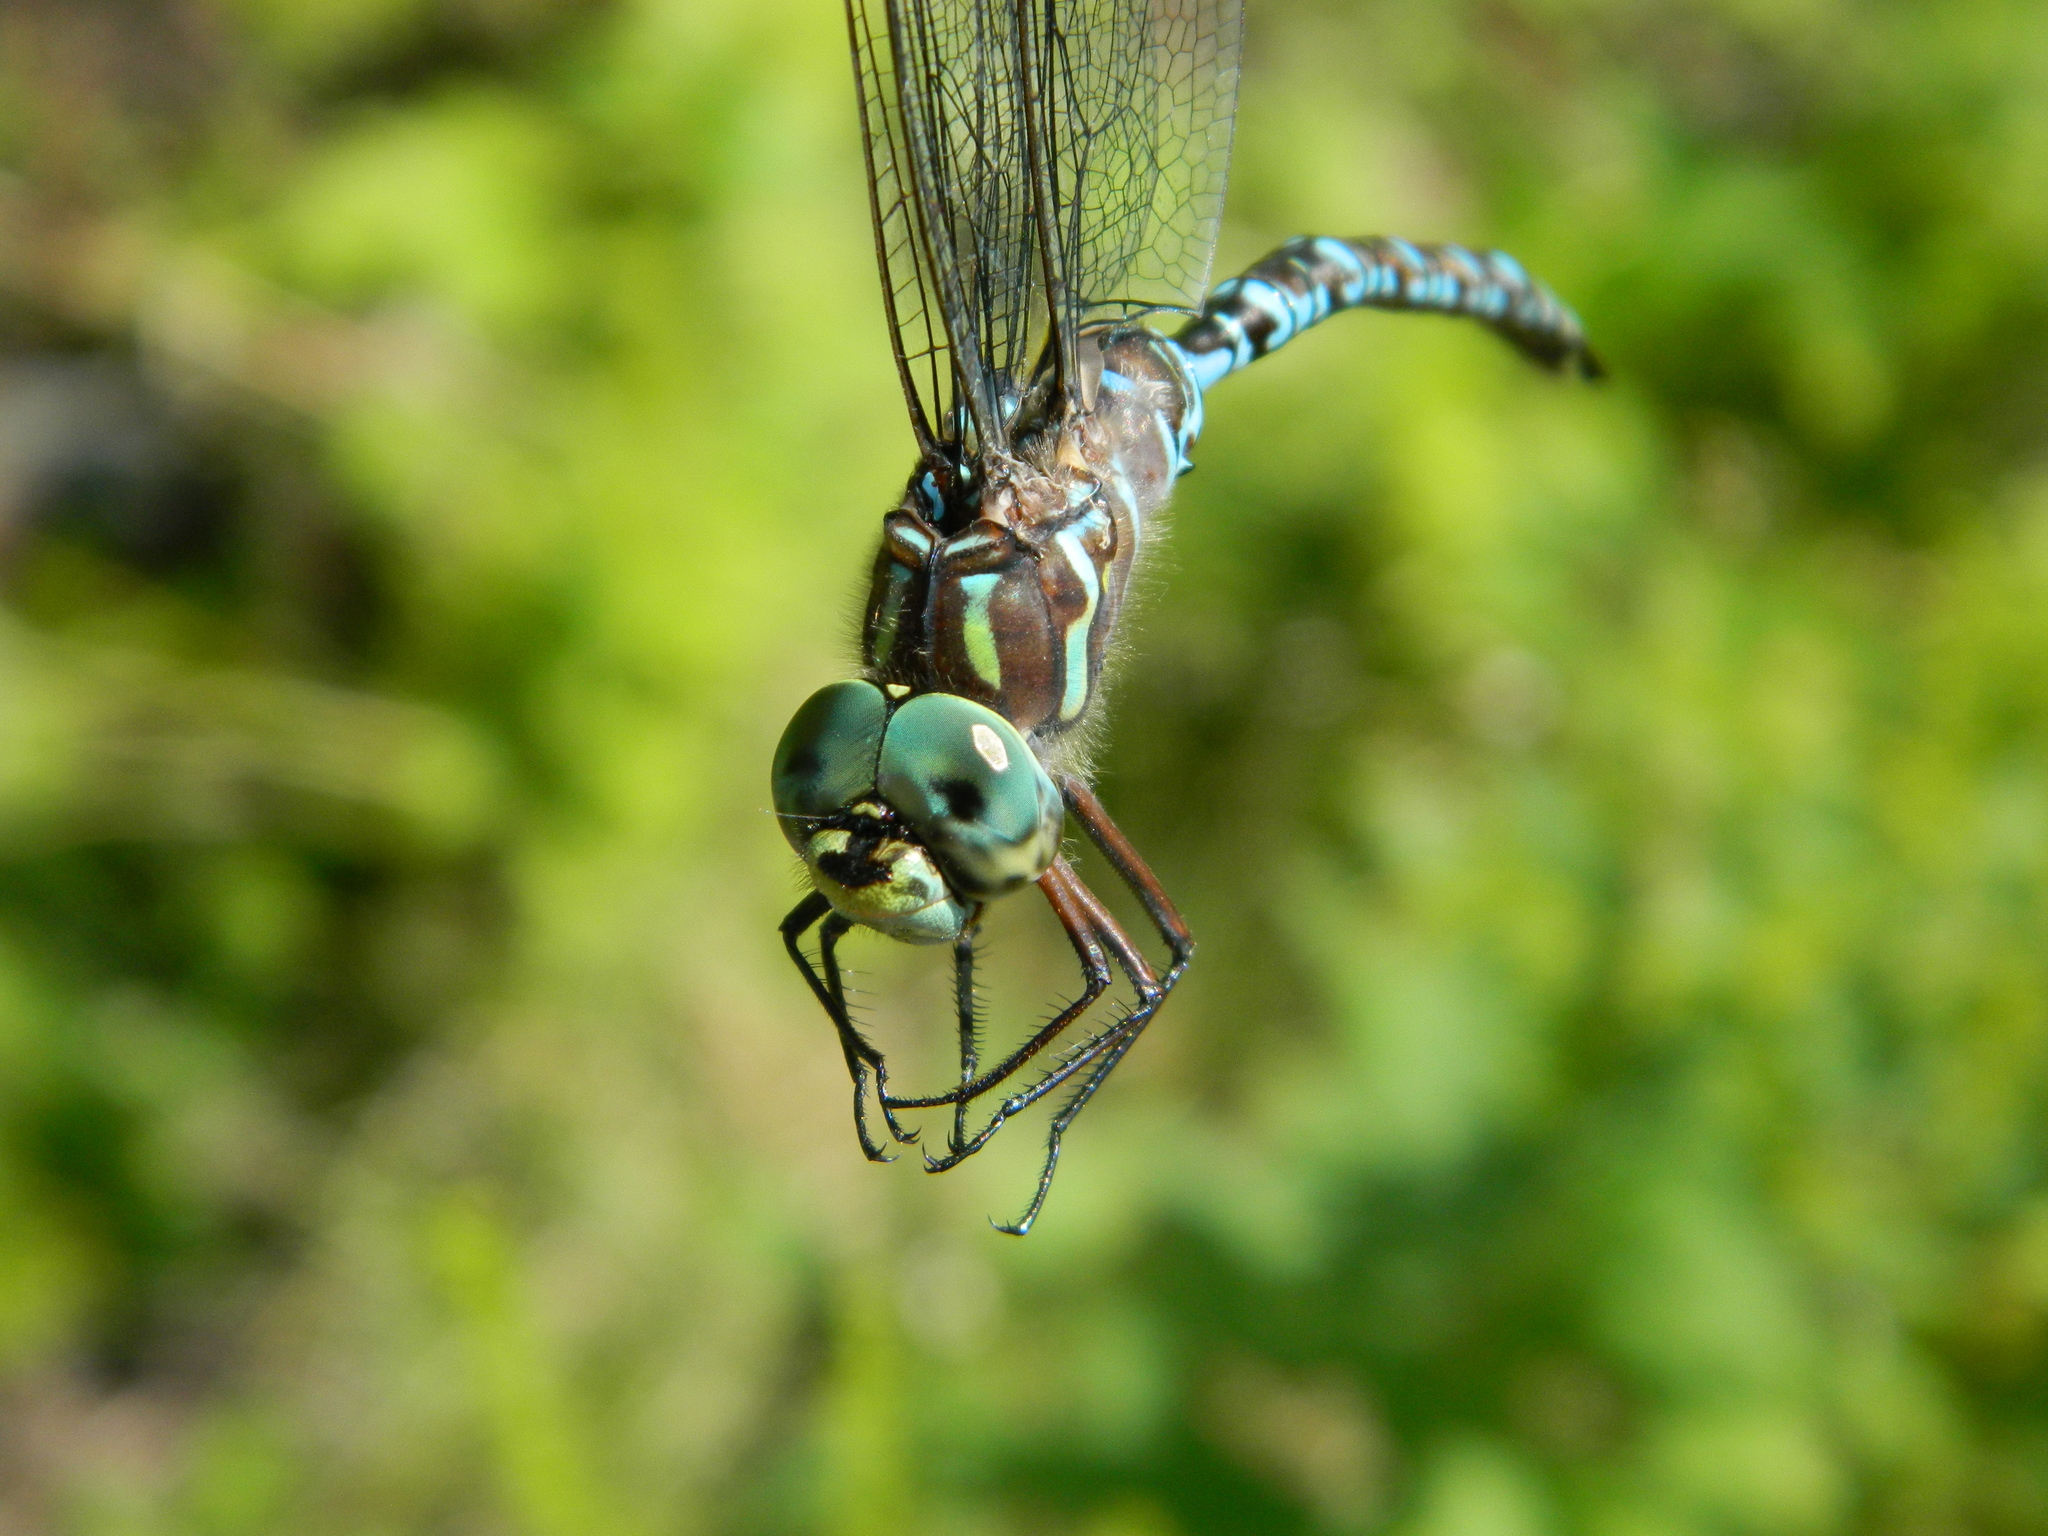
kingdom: Animalia
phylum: Arthropoda
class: Insecta
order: Odonata
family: Aeshnidae
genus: Aeshna
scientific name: Aeshna canadensis
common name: Canada darner
